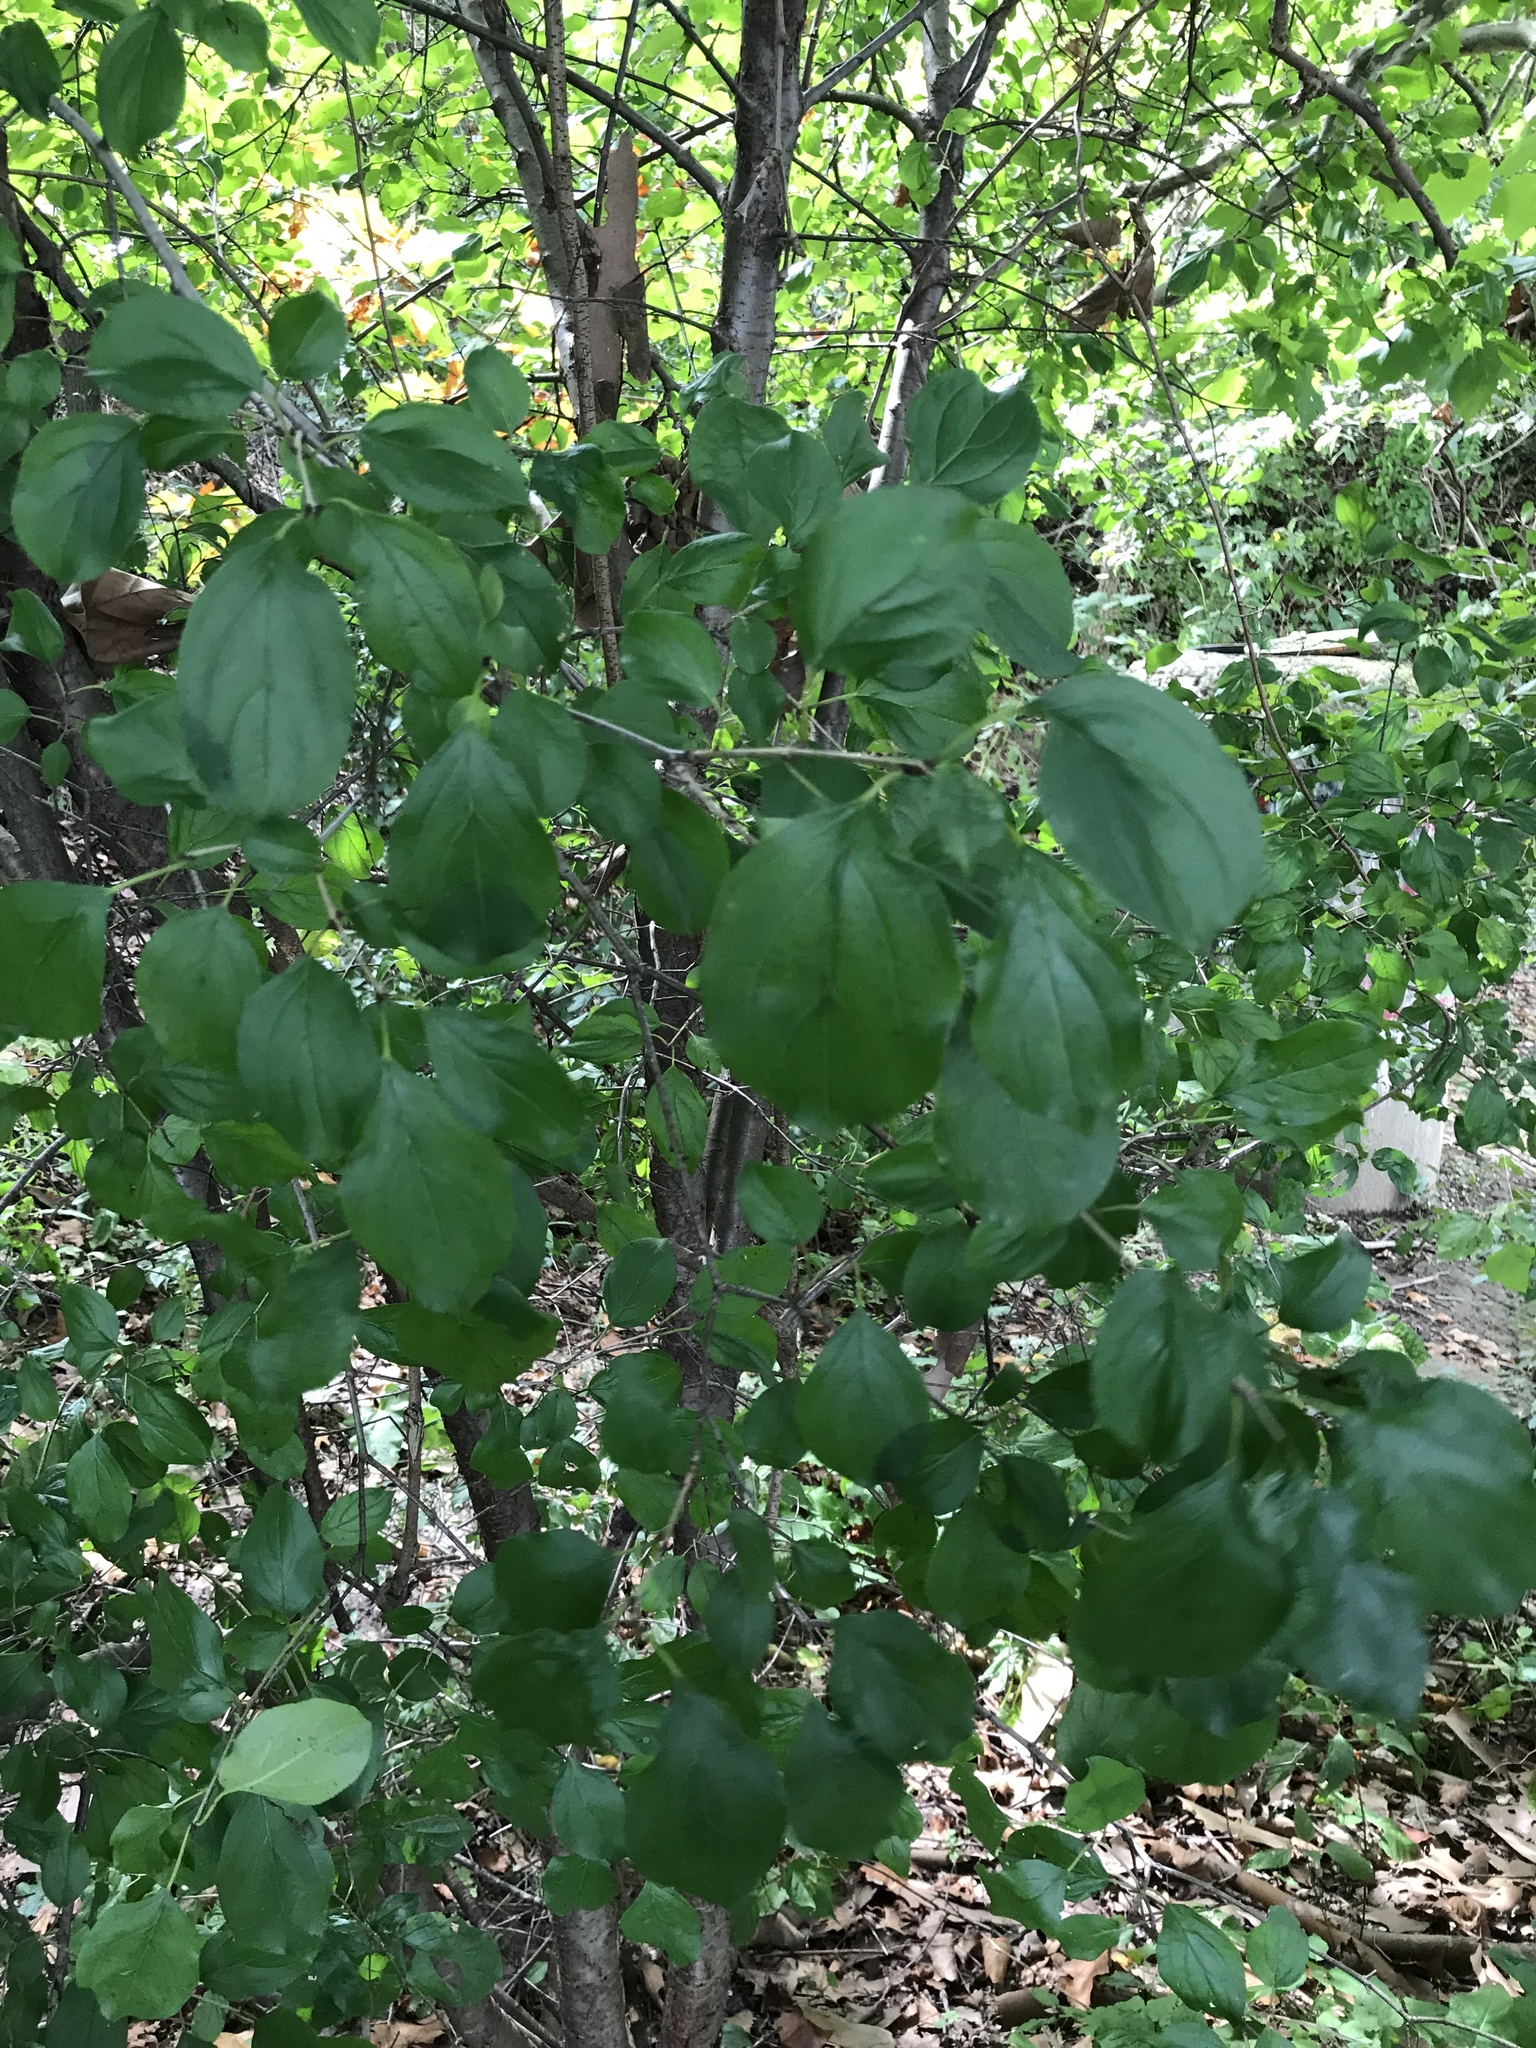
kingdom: Plantae
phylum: Tracheophyta
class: Magnoliopsida
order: Rosales
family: Rhamnaceae
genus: Rhamnus
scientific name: Rhamnus cathartica
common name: Common buckthorn
